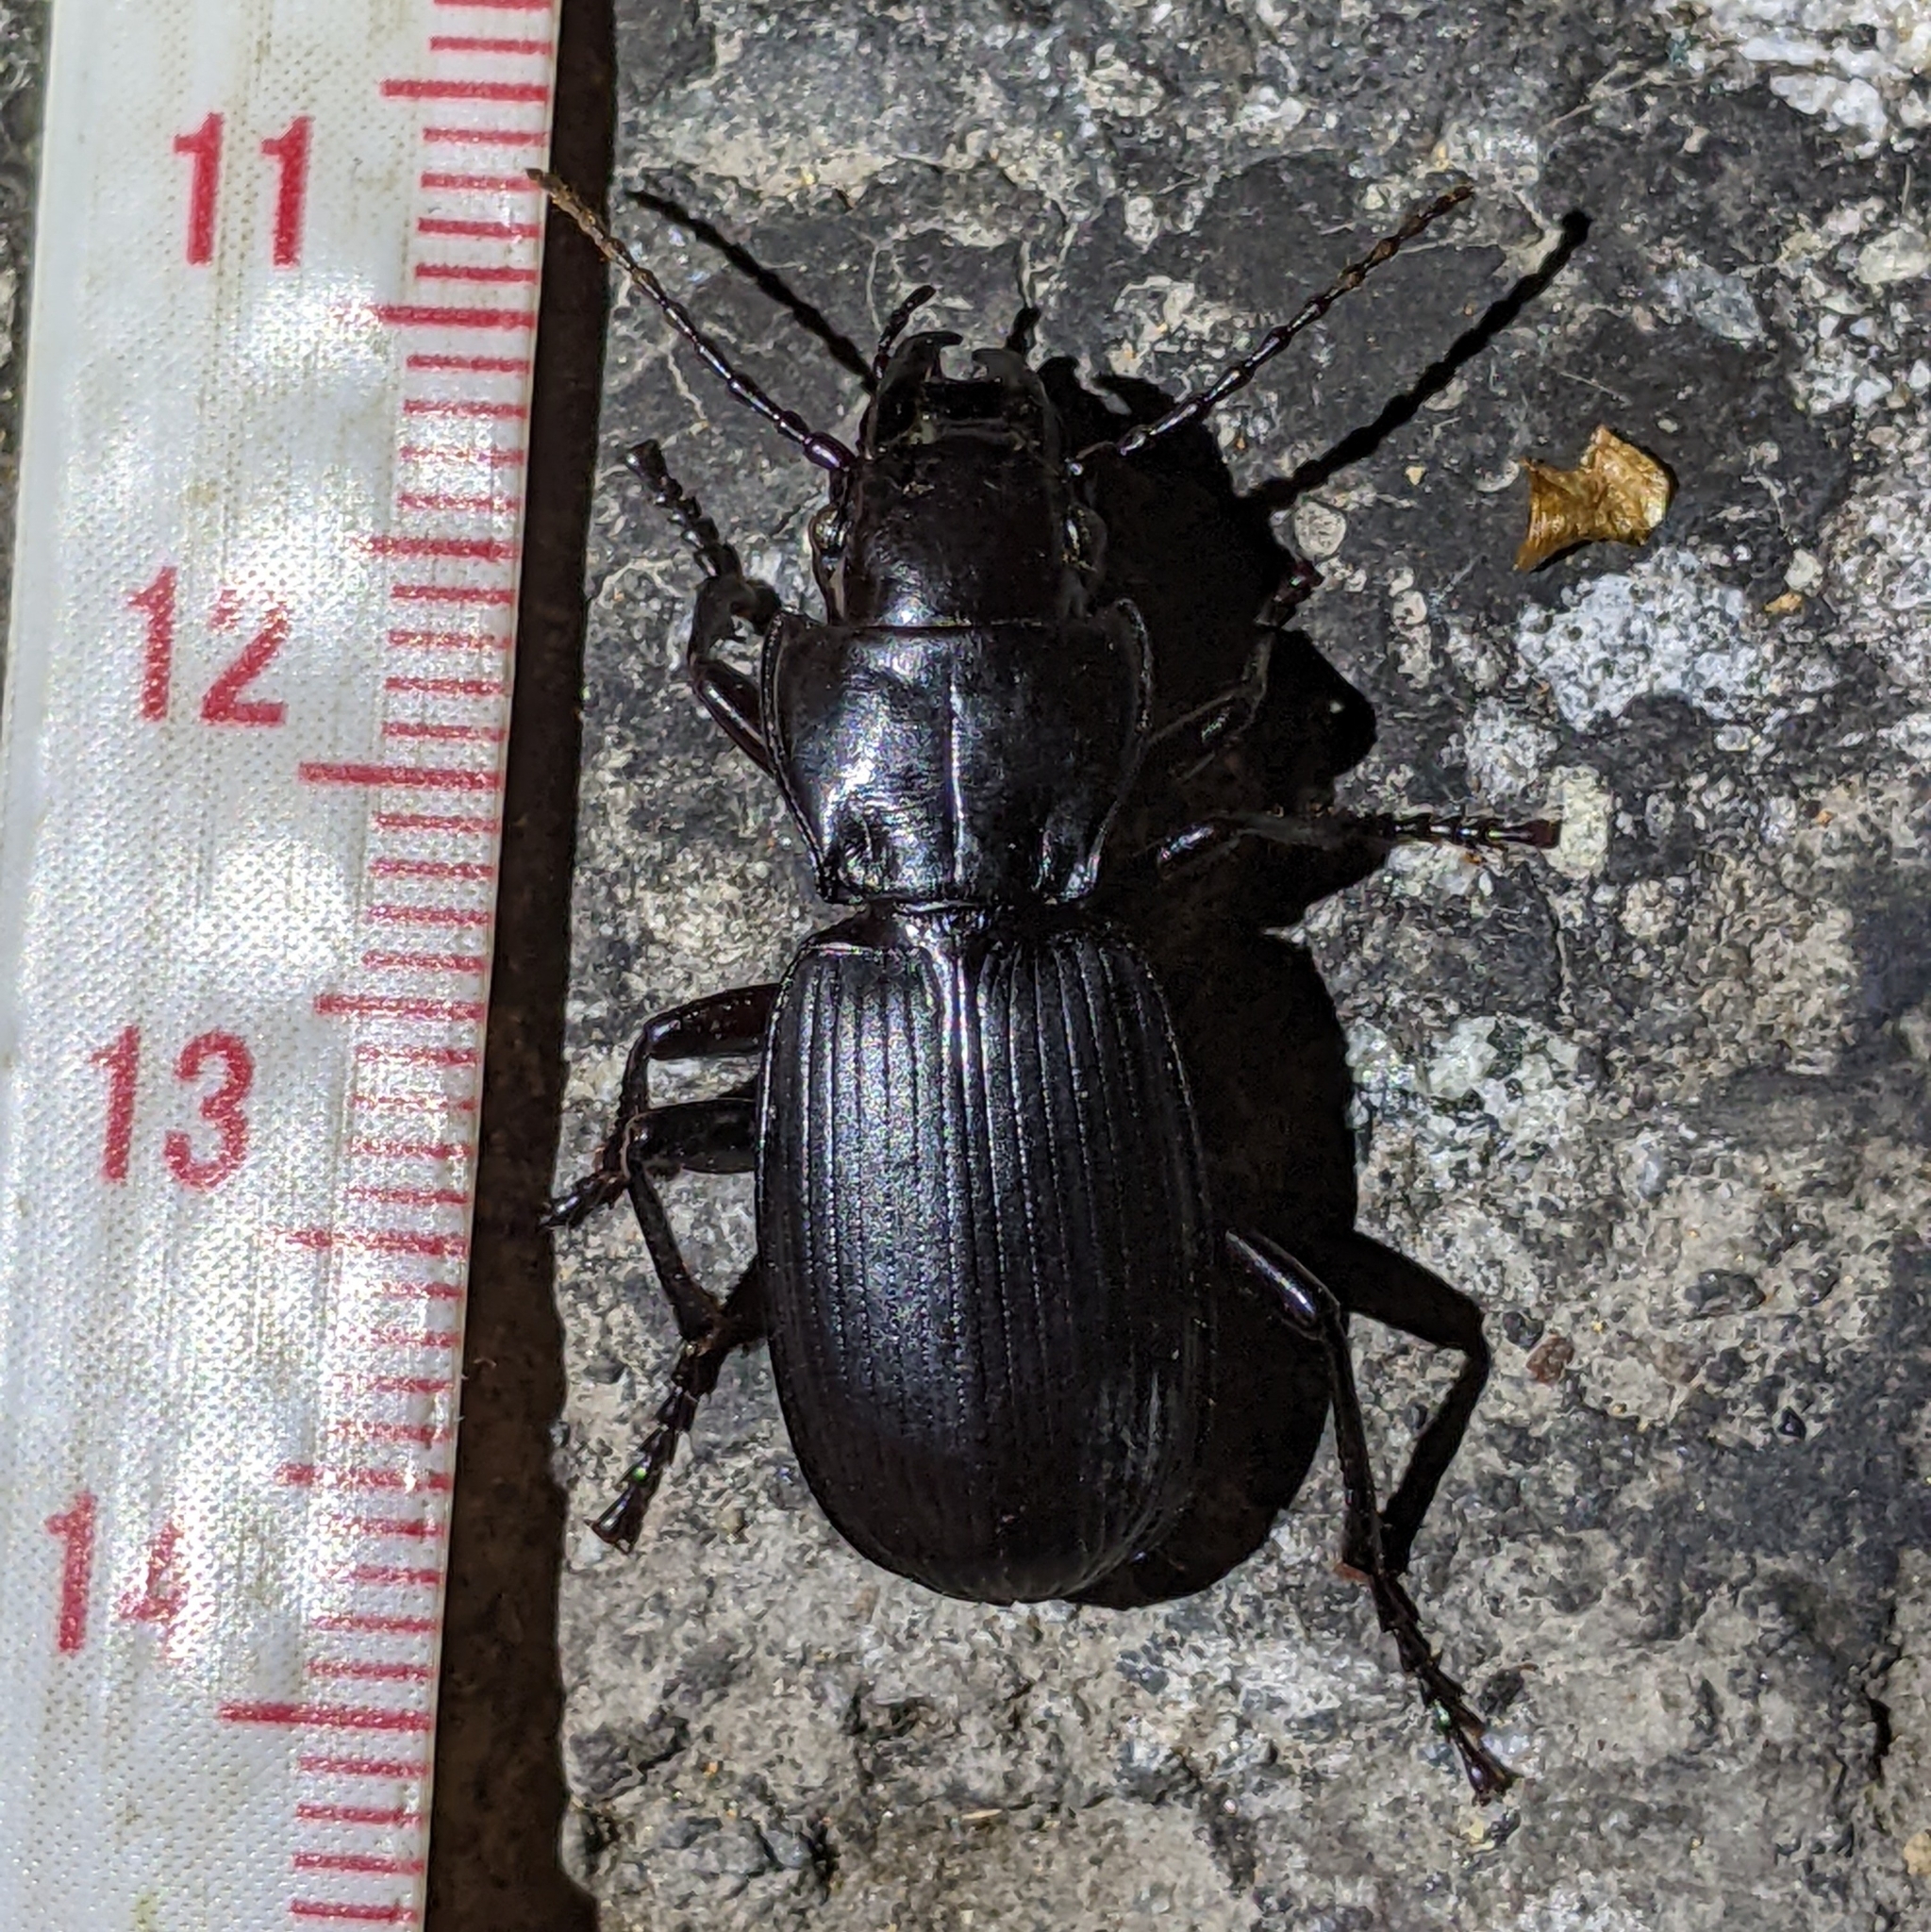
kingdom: Animalia
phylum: Arthropoda
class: Insecta
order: Coleoptera
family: Carabidae
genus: Pterostichus
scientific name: Pterostichus lama
